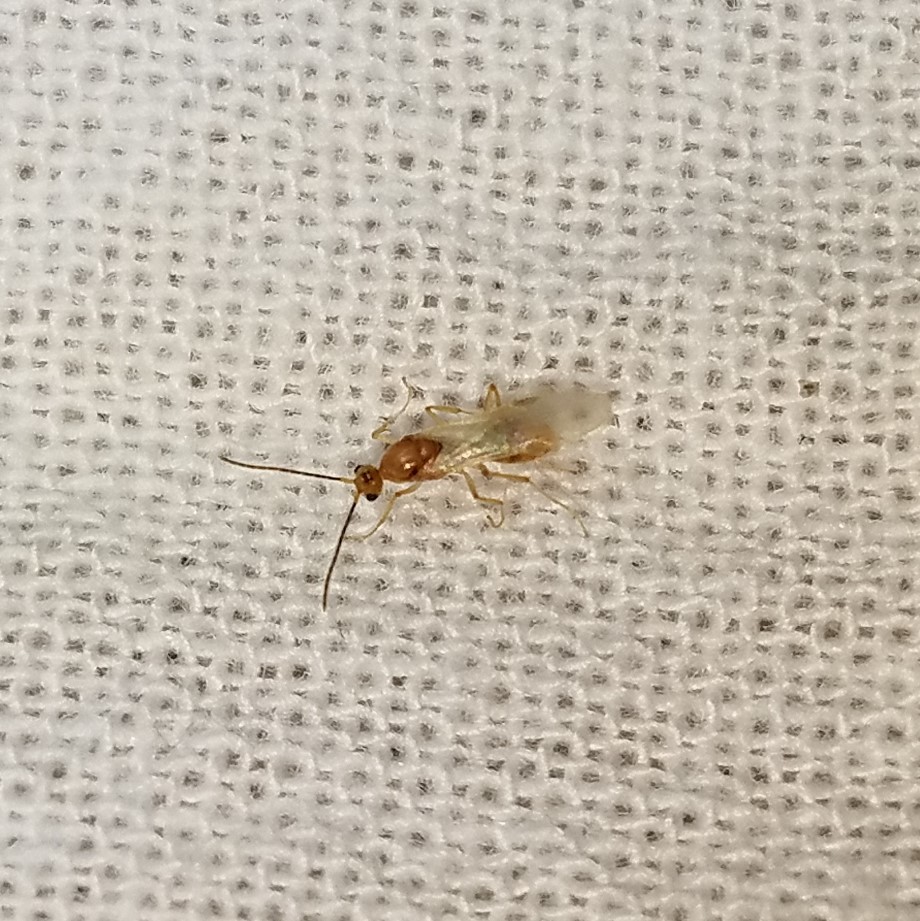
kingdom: Animalia
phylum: Arthropoda
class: Insecta
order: Hymenoptera
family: Formicidae
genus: Pachycondyla
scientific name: Pachycondyla chinensis
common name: Asian needle ant
